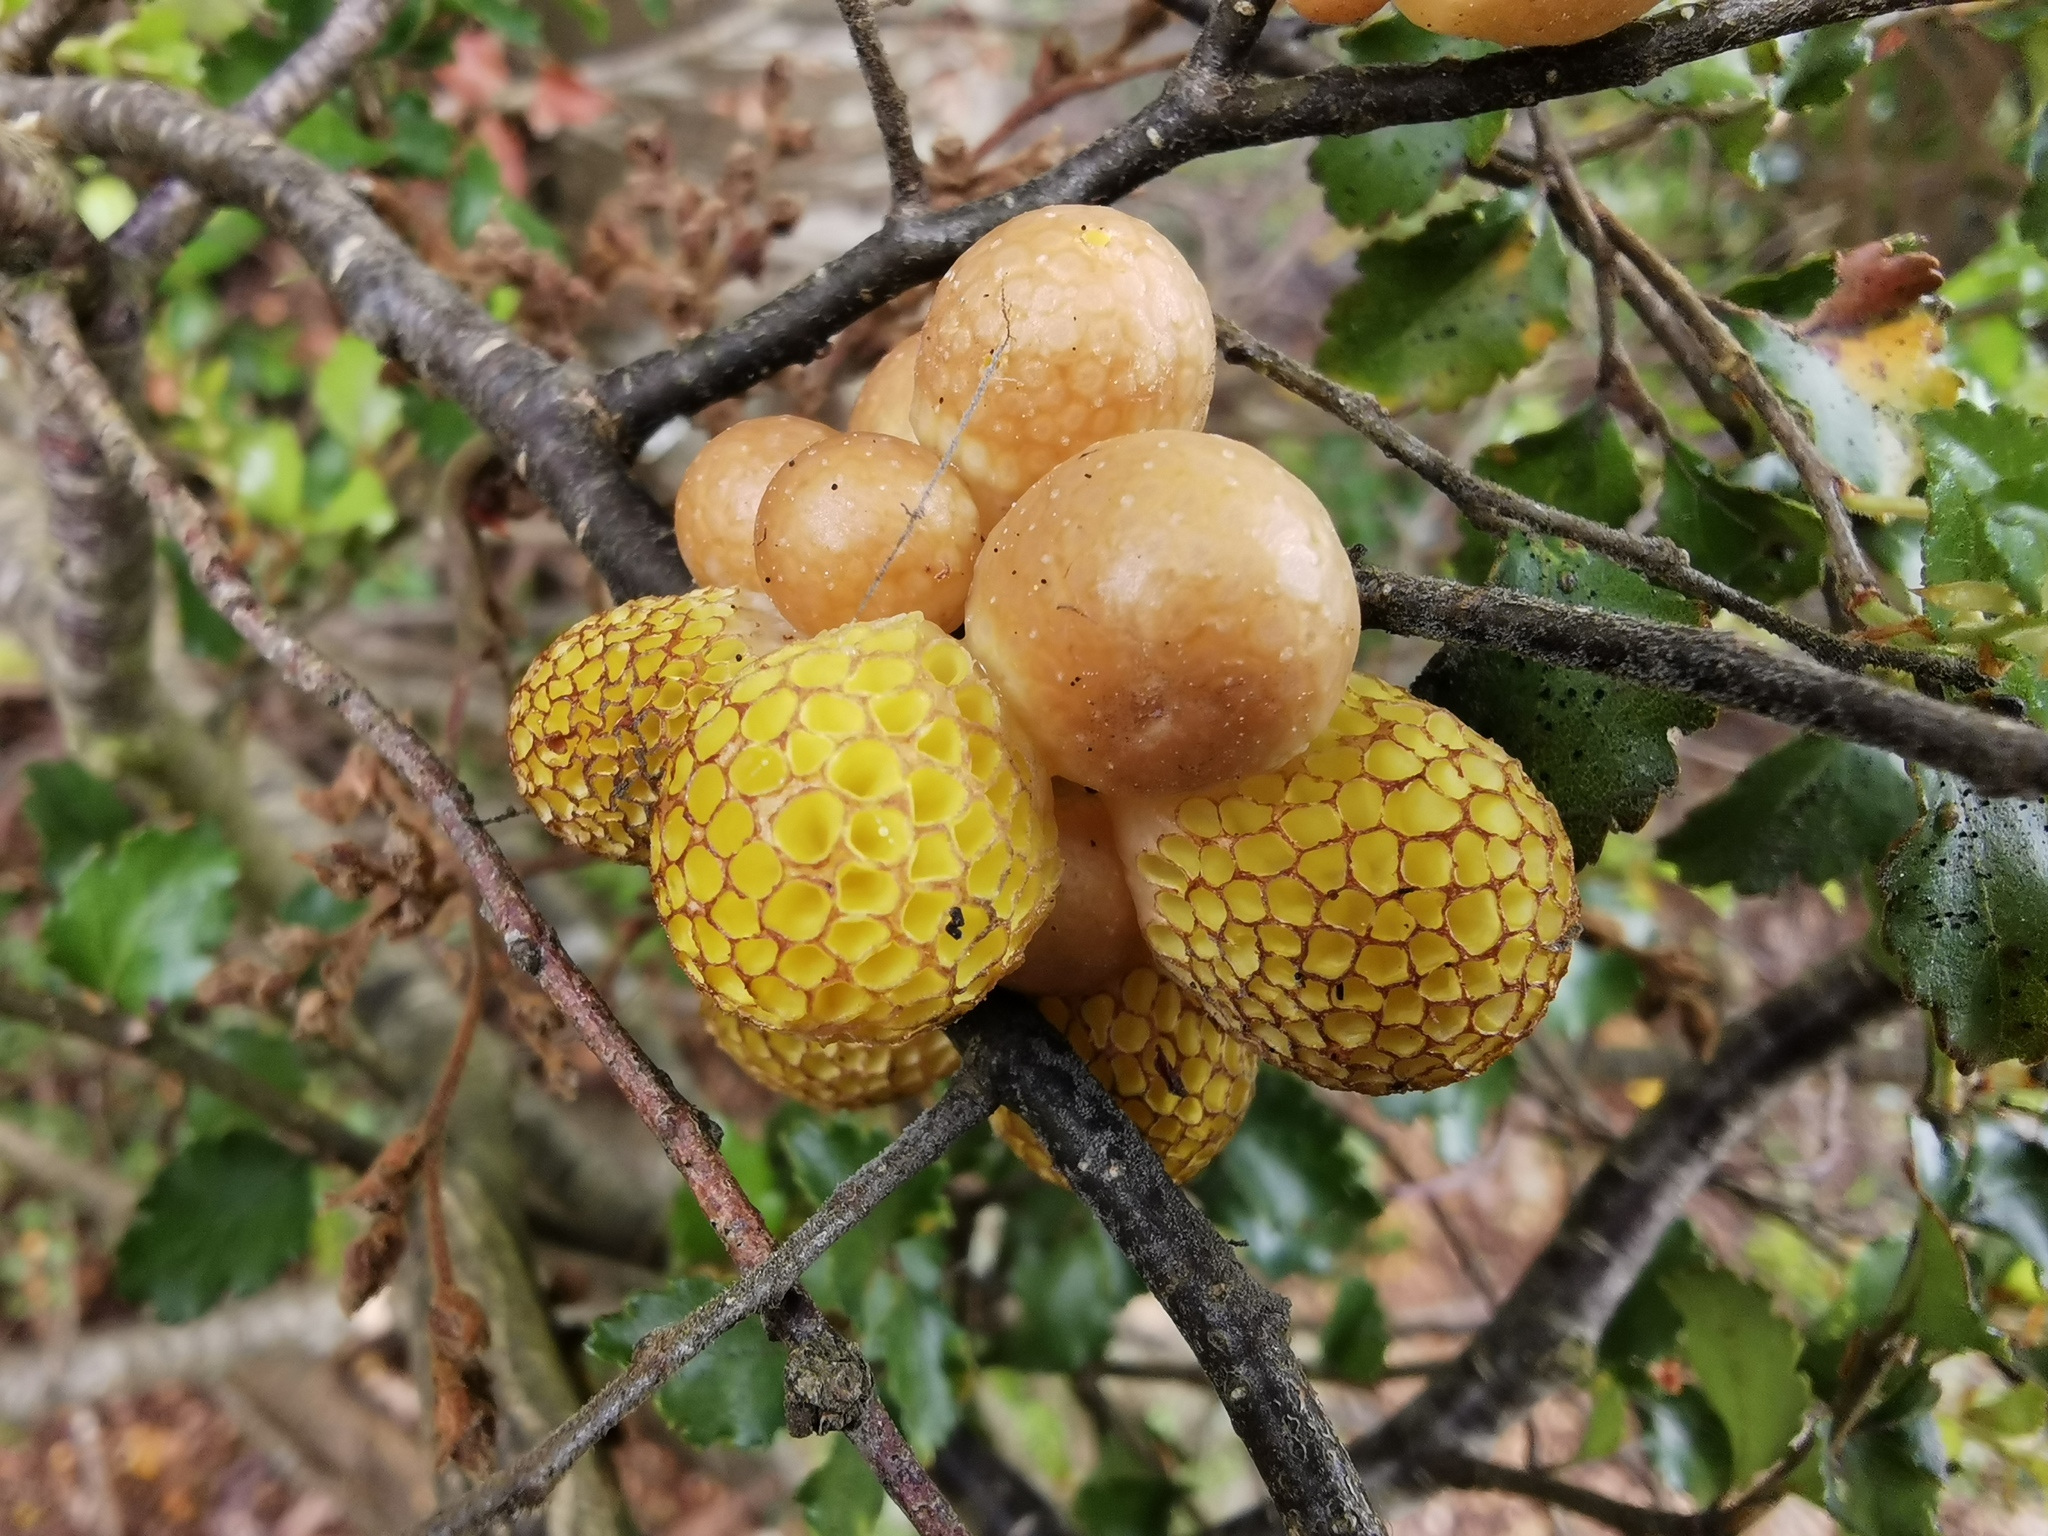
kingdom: Fungi
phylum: Ascomycota
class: Leotiomycetes
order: Cyttariales
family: Cyttariaceae
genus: Cyttaria
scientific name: Cyttaria gunnii
